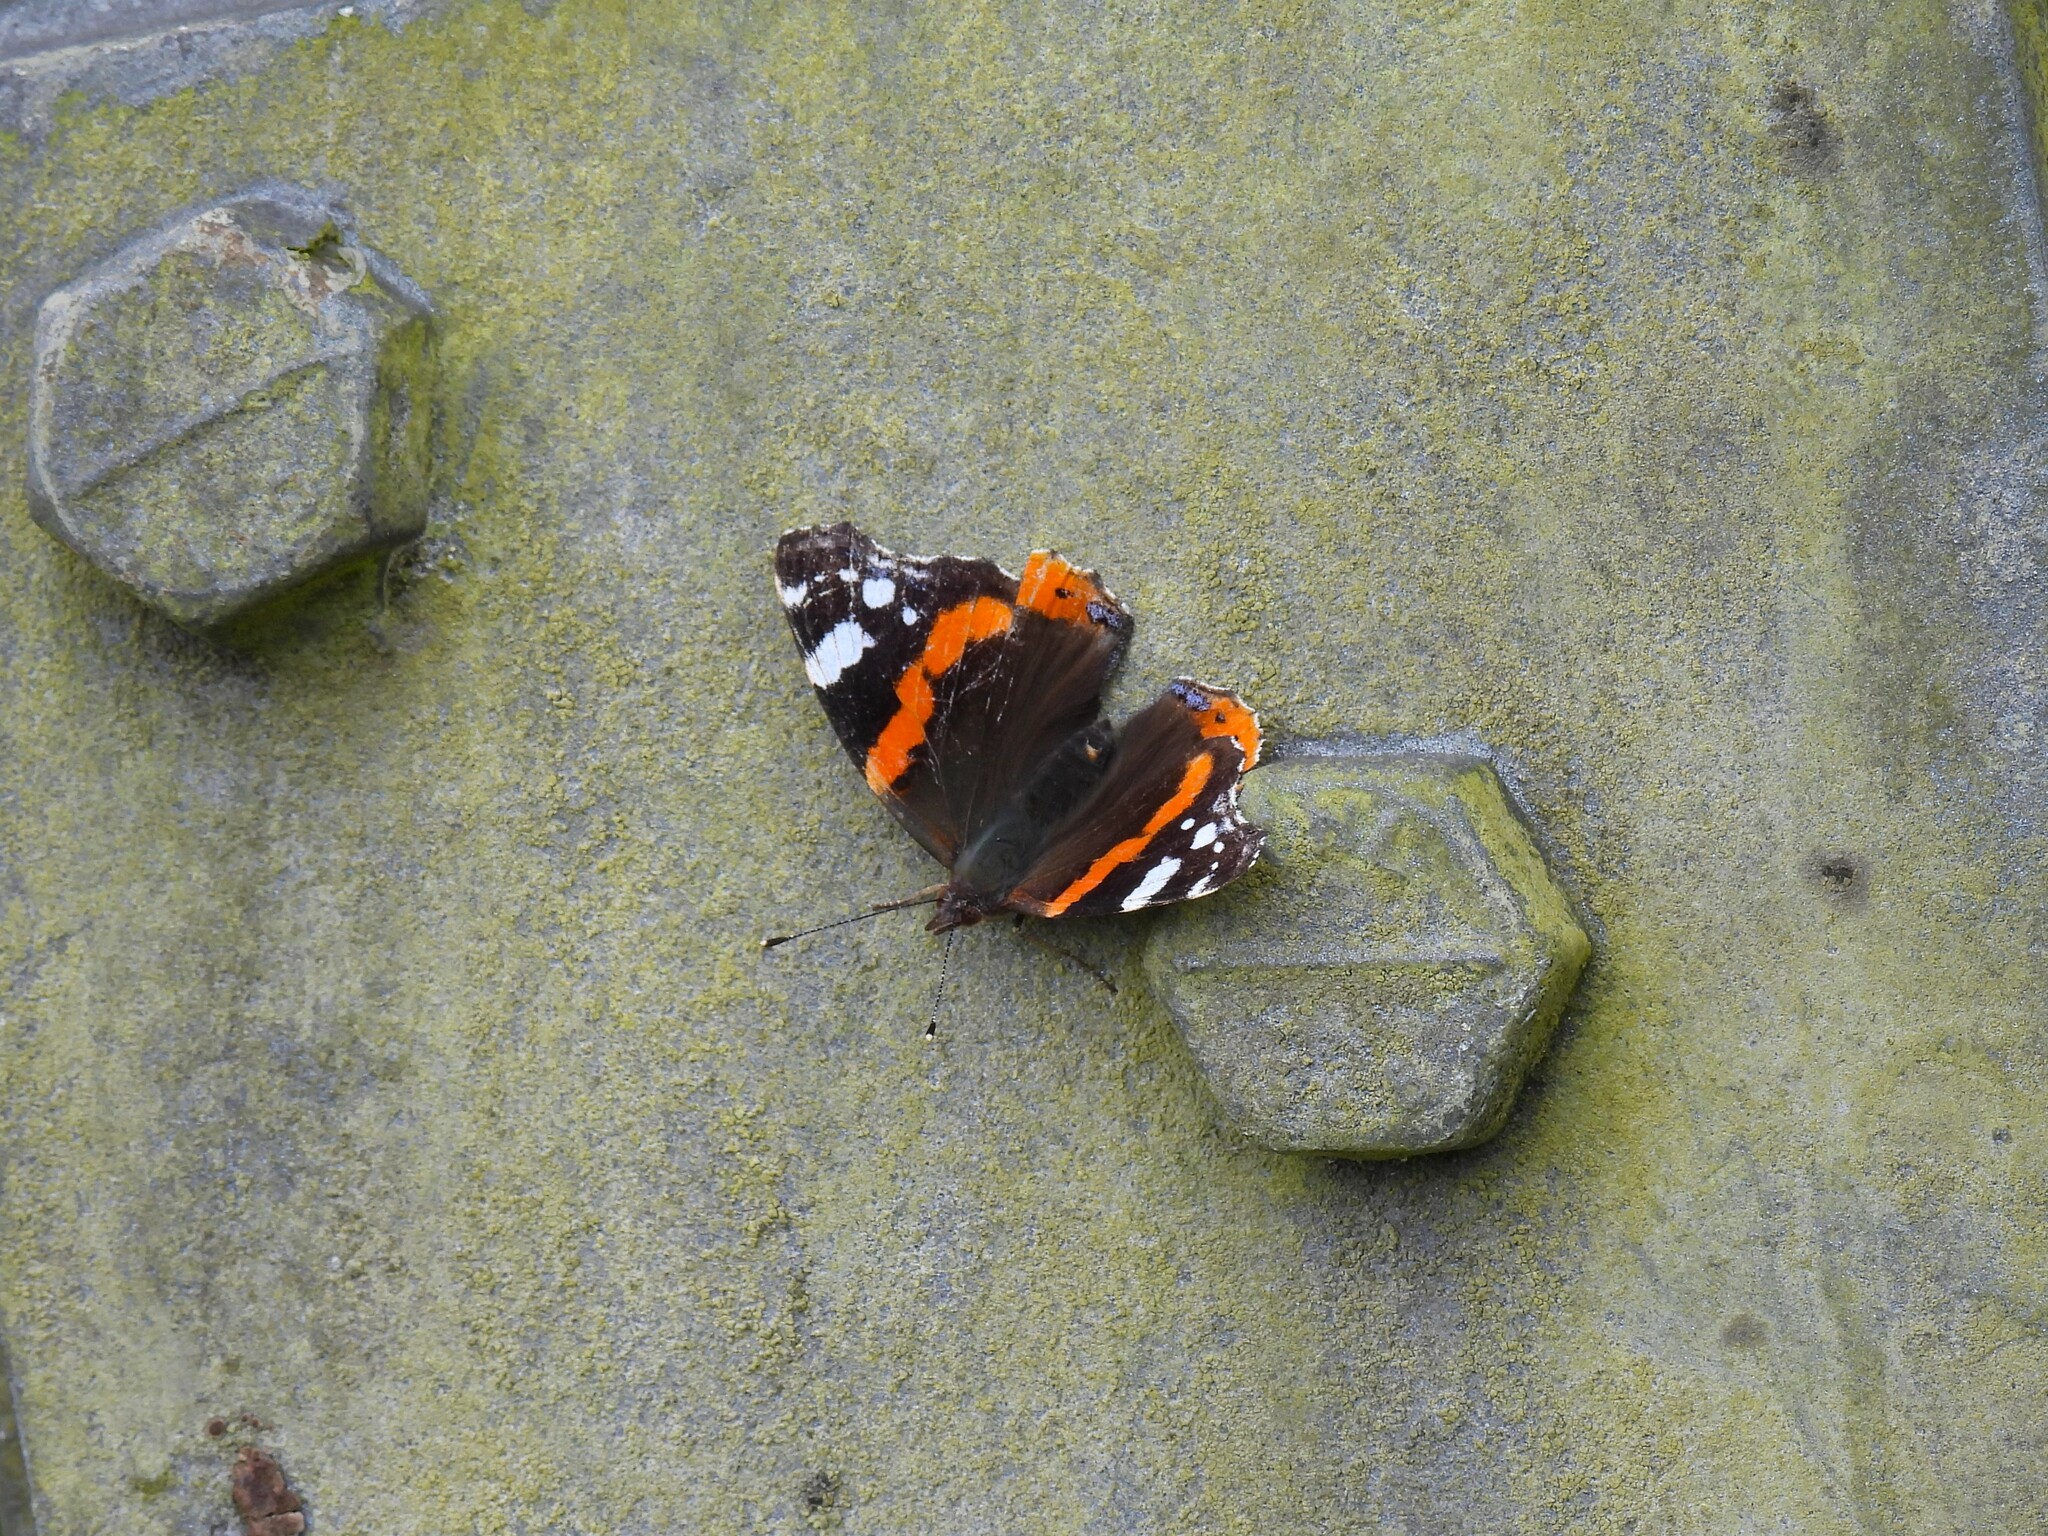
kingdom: Animalia
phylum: Arthropoda
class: Insecta
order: Lepidoptera
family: Nymphalidae
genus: Vanessa
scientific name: Vanessa atalanta
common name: Red admiral
